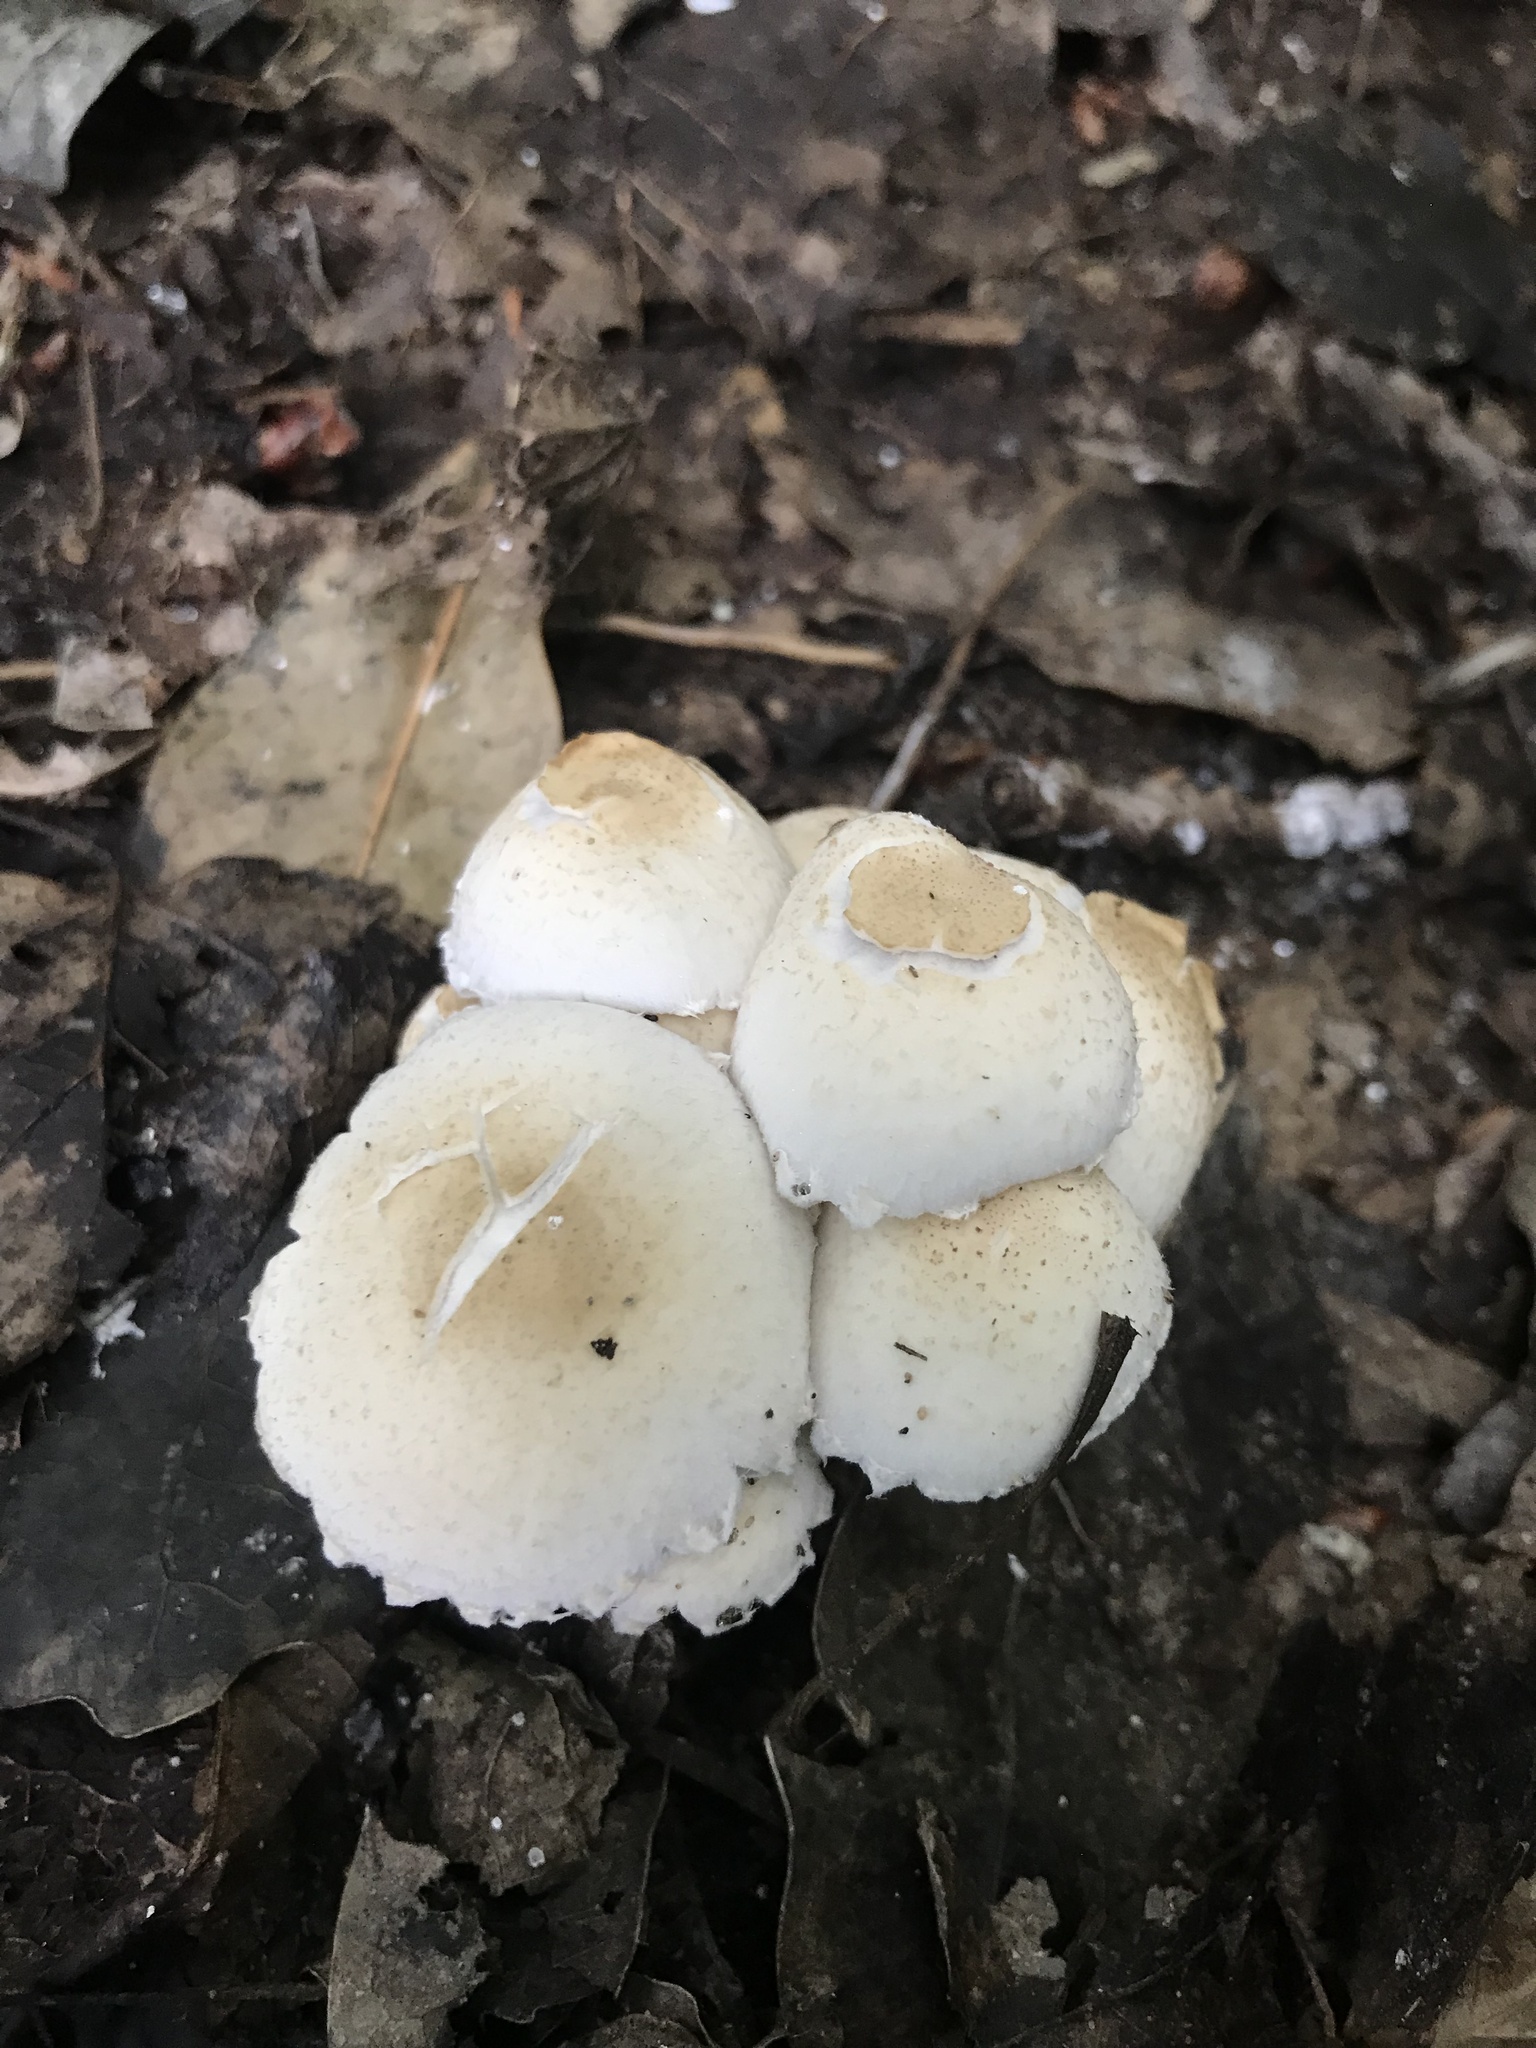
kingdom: Fungi
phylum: Basidiomycota
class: Agaricomycetes
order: Agaricales
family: Psathyrellaceae
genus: Candolleomyces
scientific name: Candolleomyces candolleanus
